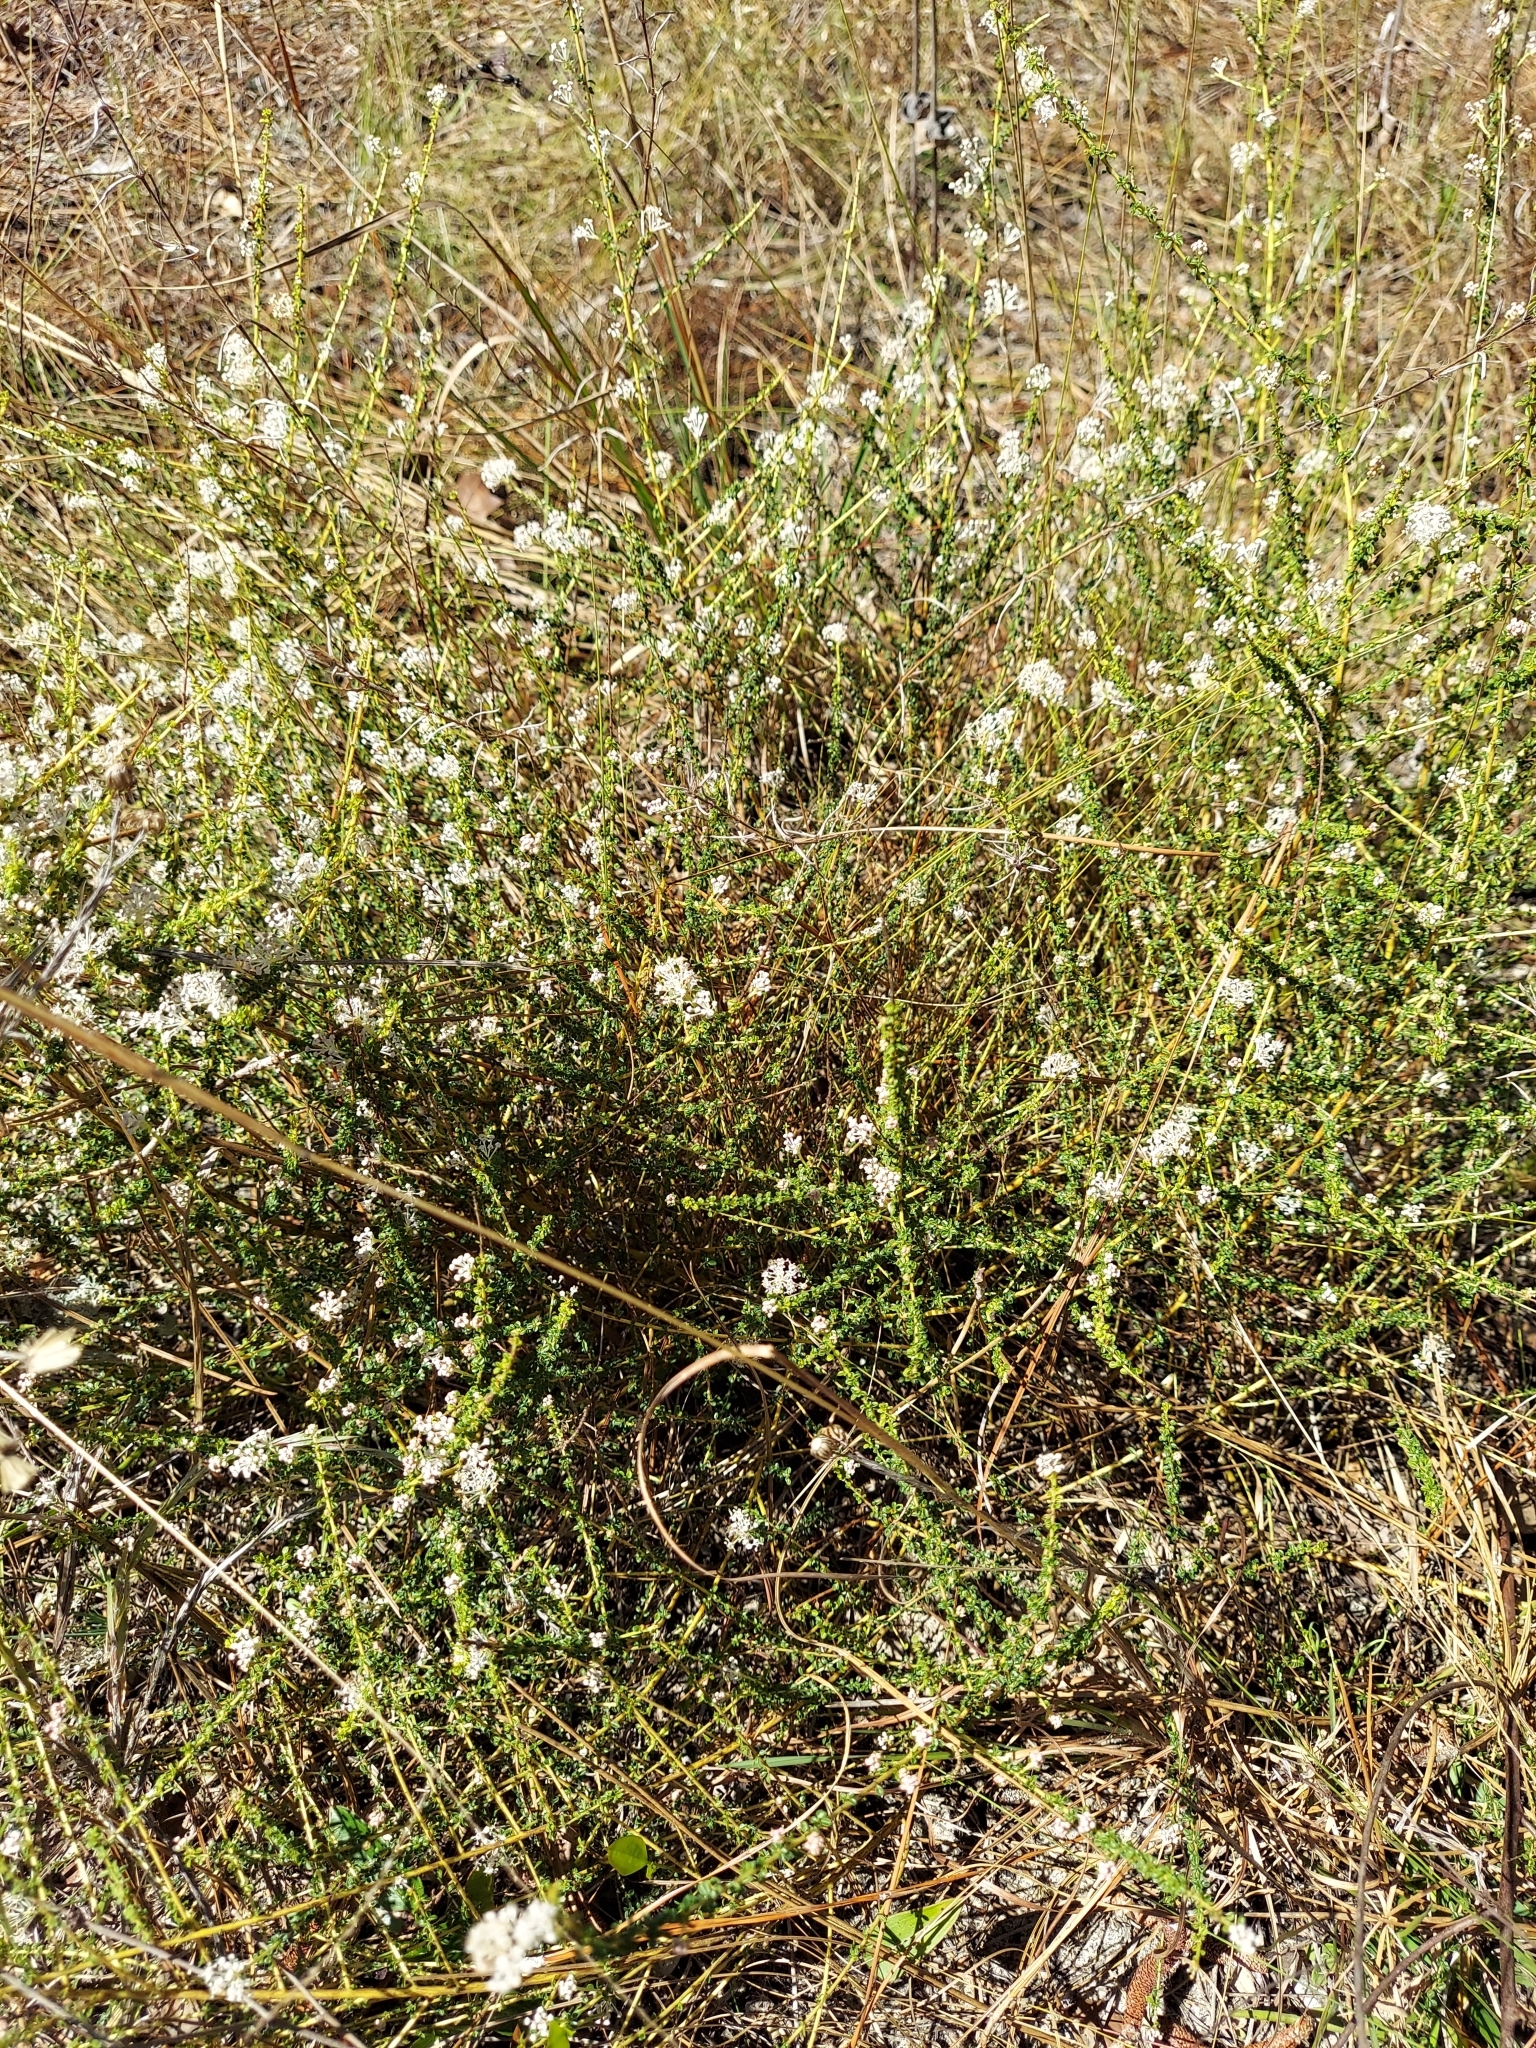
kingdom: Plantae
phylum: Tracheophyta
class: Magnoliopsida
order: Rosales
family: Rhamnaceae
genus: Ceanothus
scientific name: Ceanothus microphyllus
